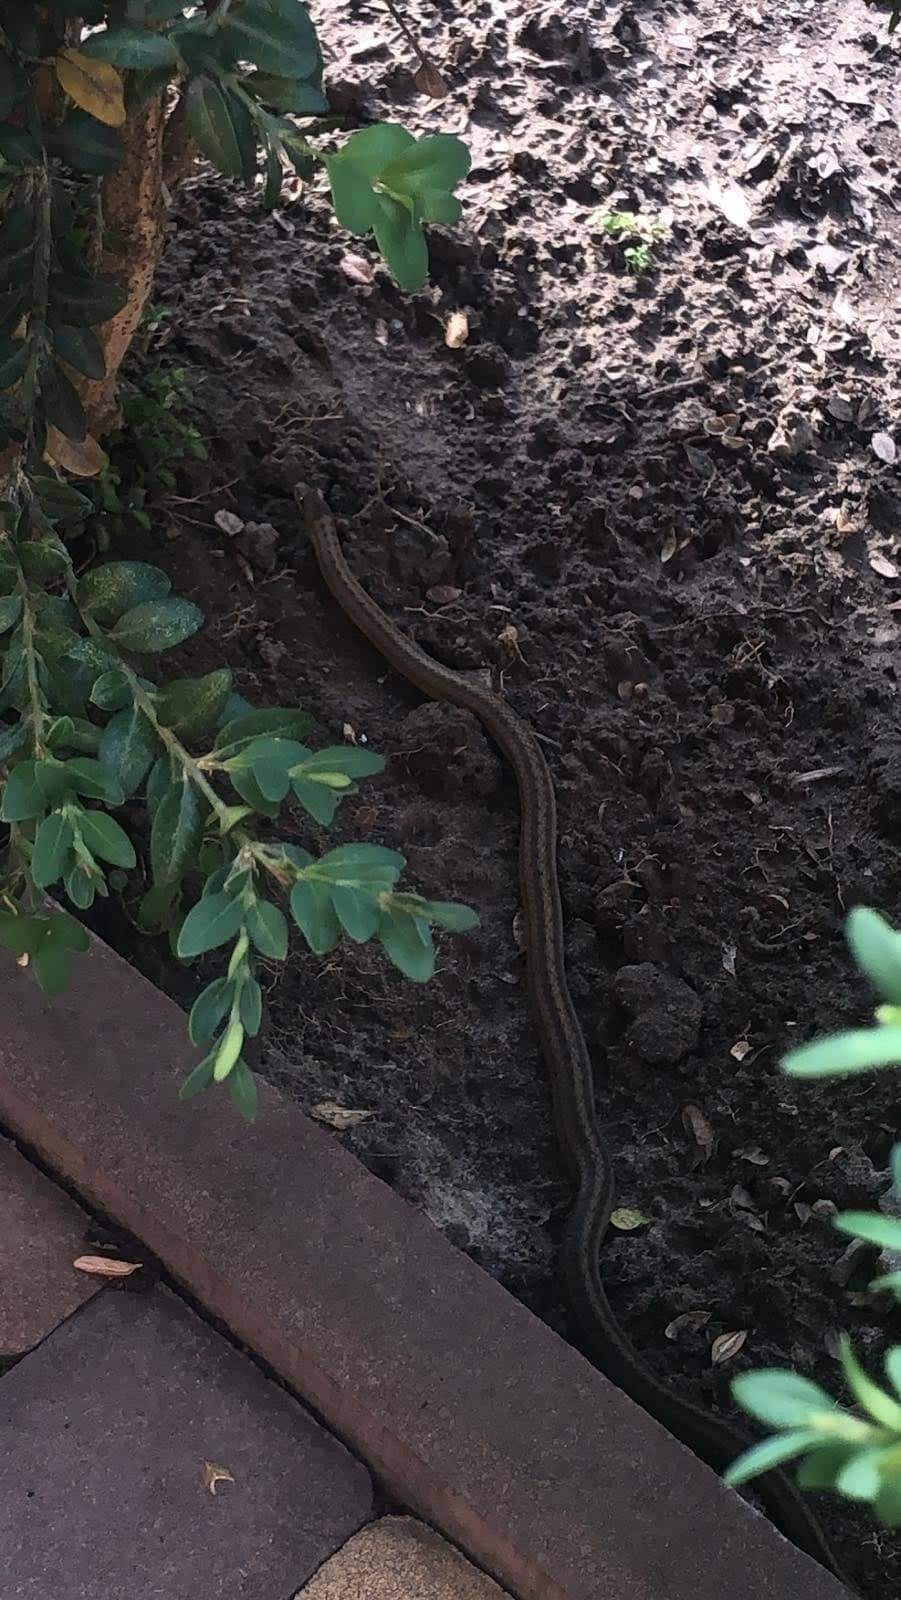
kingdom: Animalia
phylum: Chordata
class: Squamata
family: Colubridae
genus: Coronella
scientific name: Coronella austriaca
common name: Smooth snake
